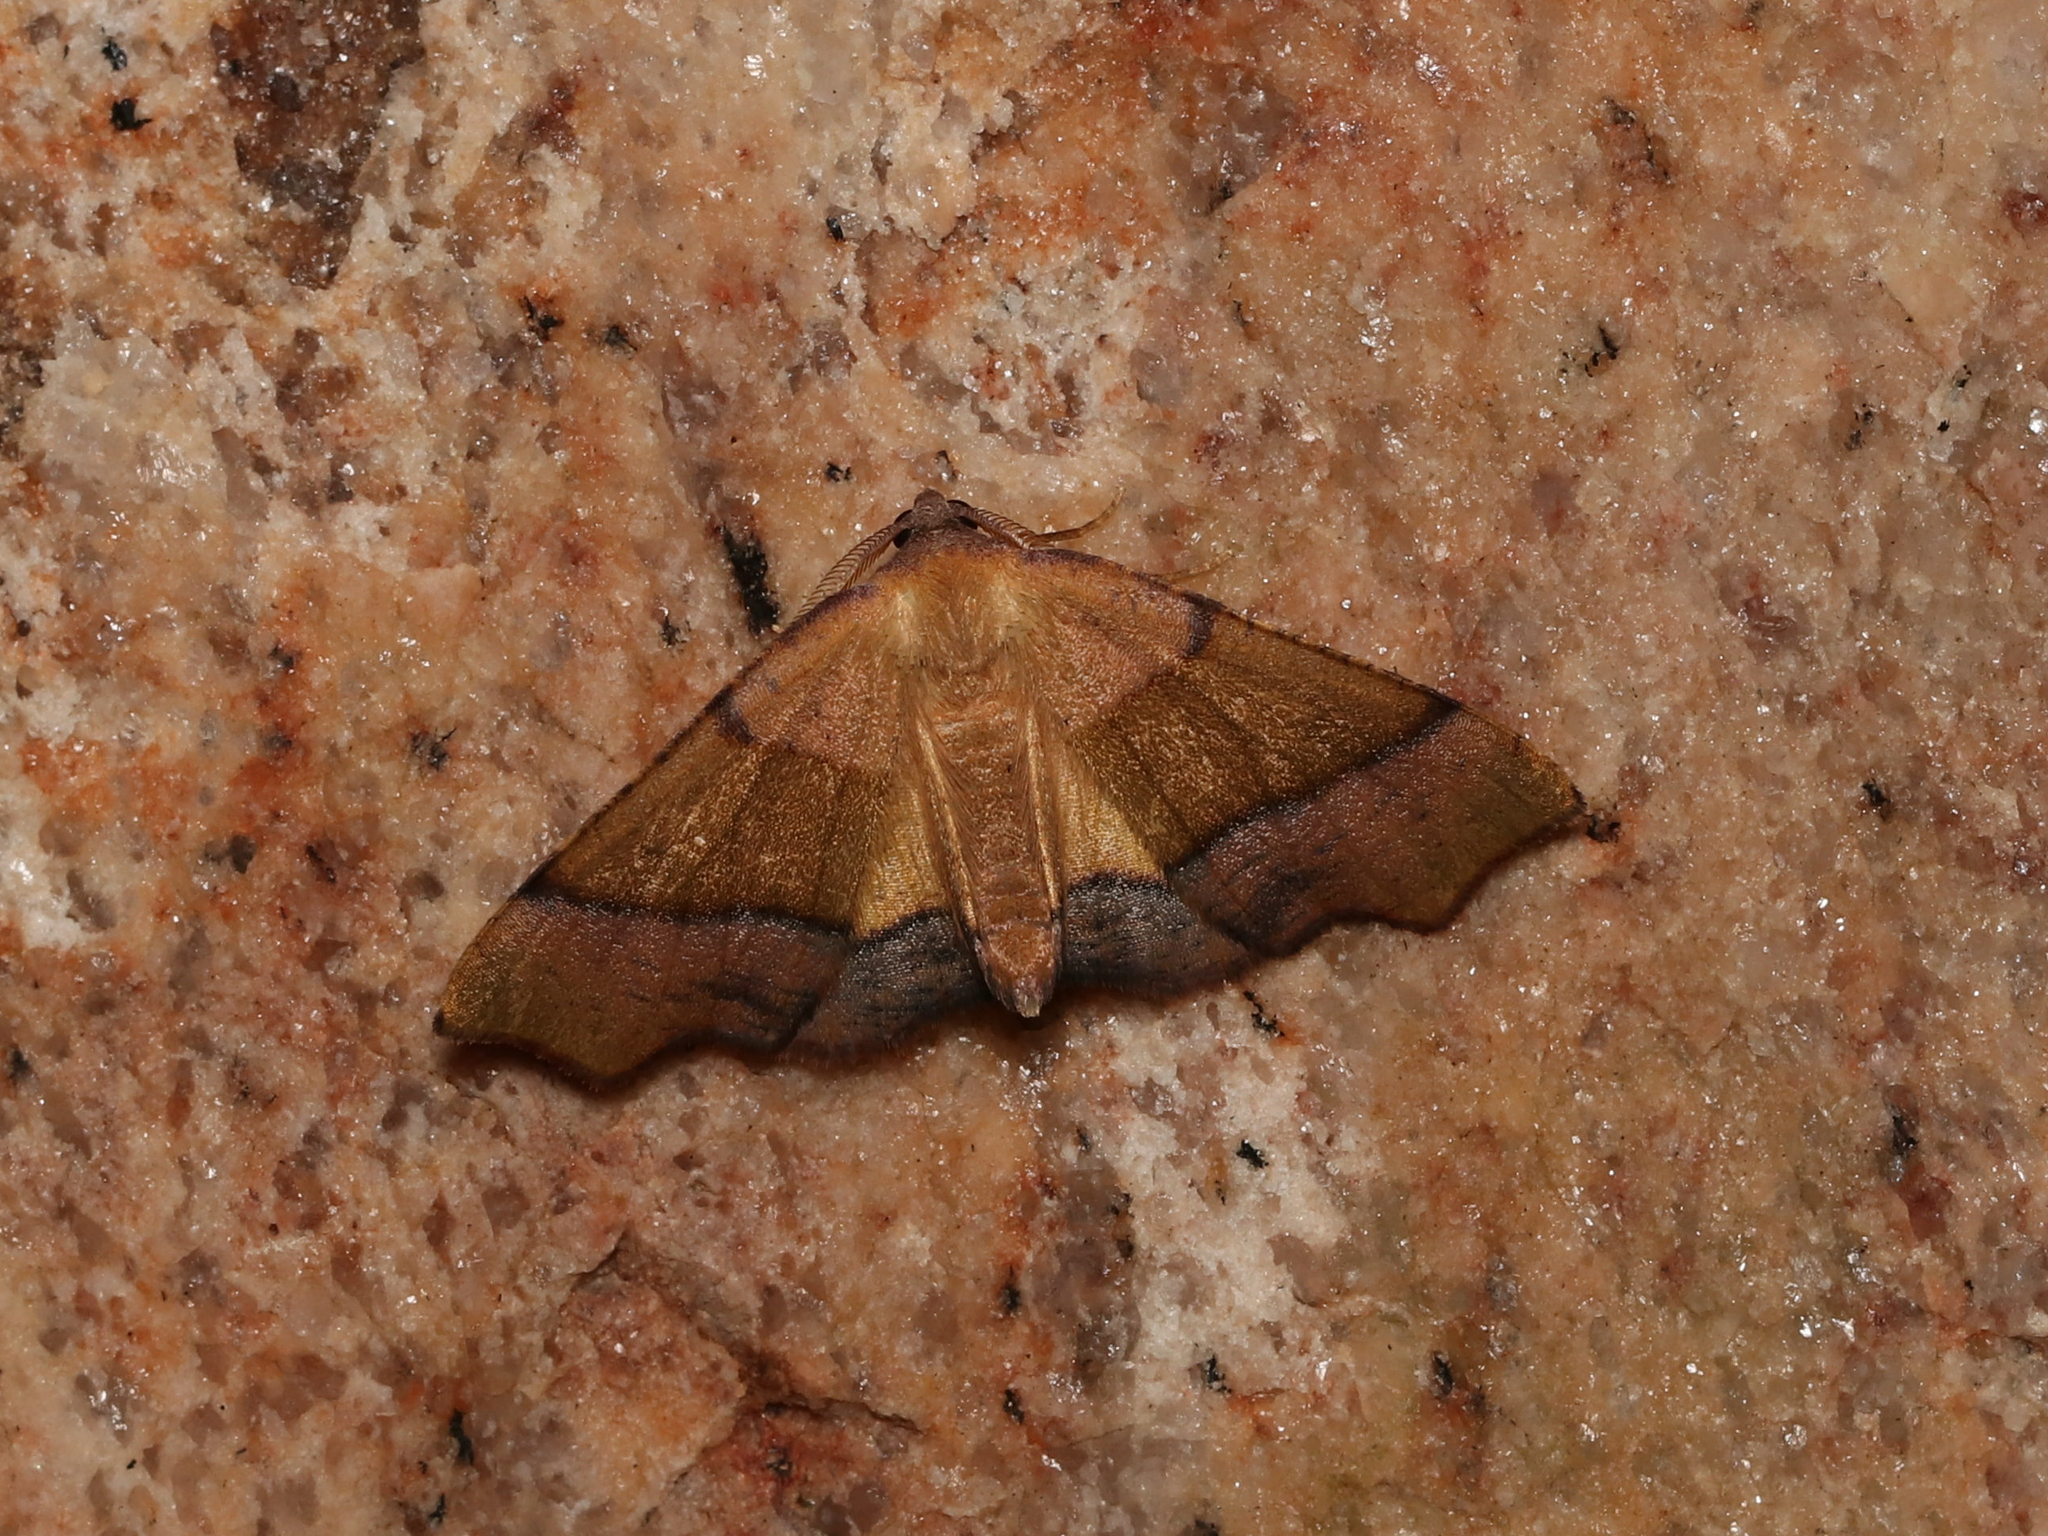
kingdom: Animalia
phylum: Arthropoda
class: Insecta
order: Lepidoptera
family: Geometridae
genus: Plagodis
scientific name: Plagodis phlogosaria
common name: Straight-lined plagodis
